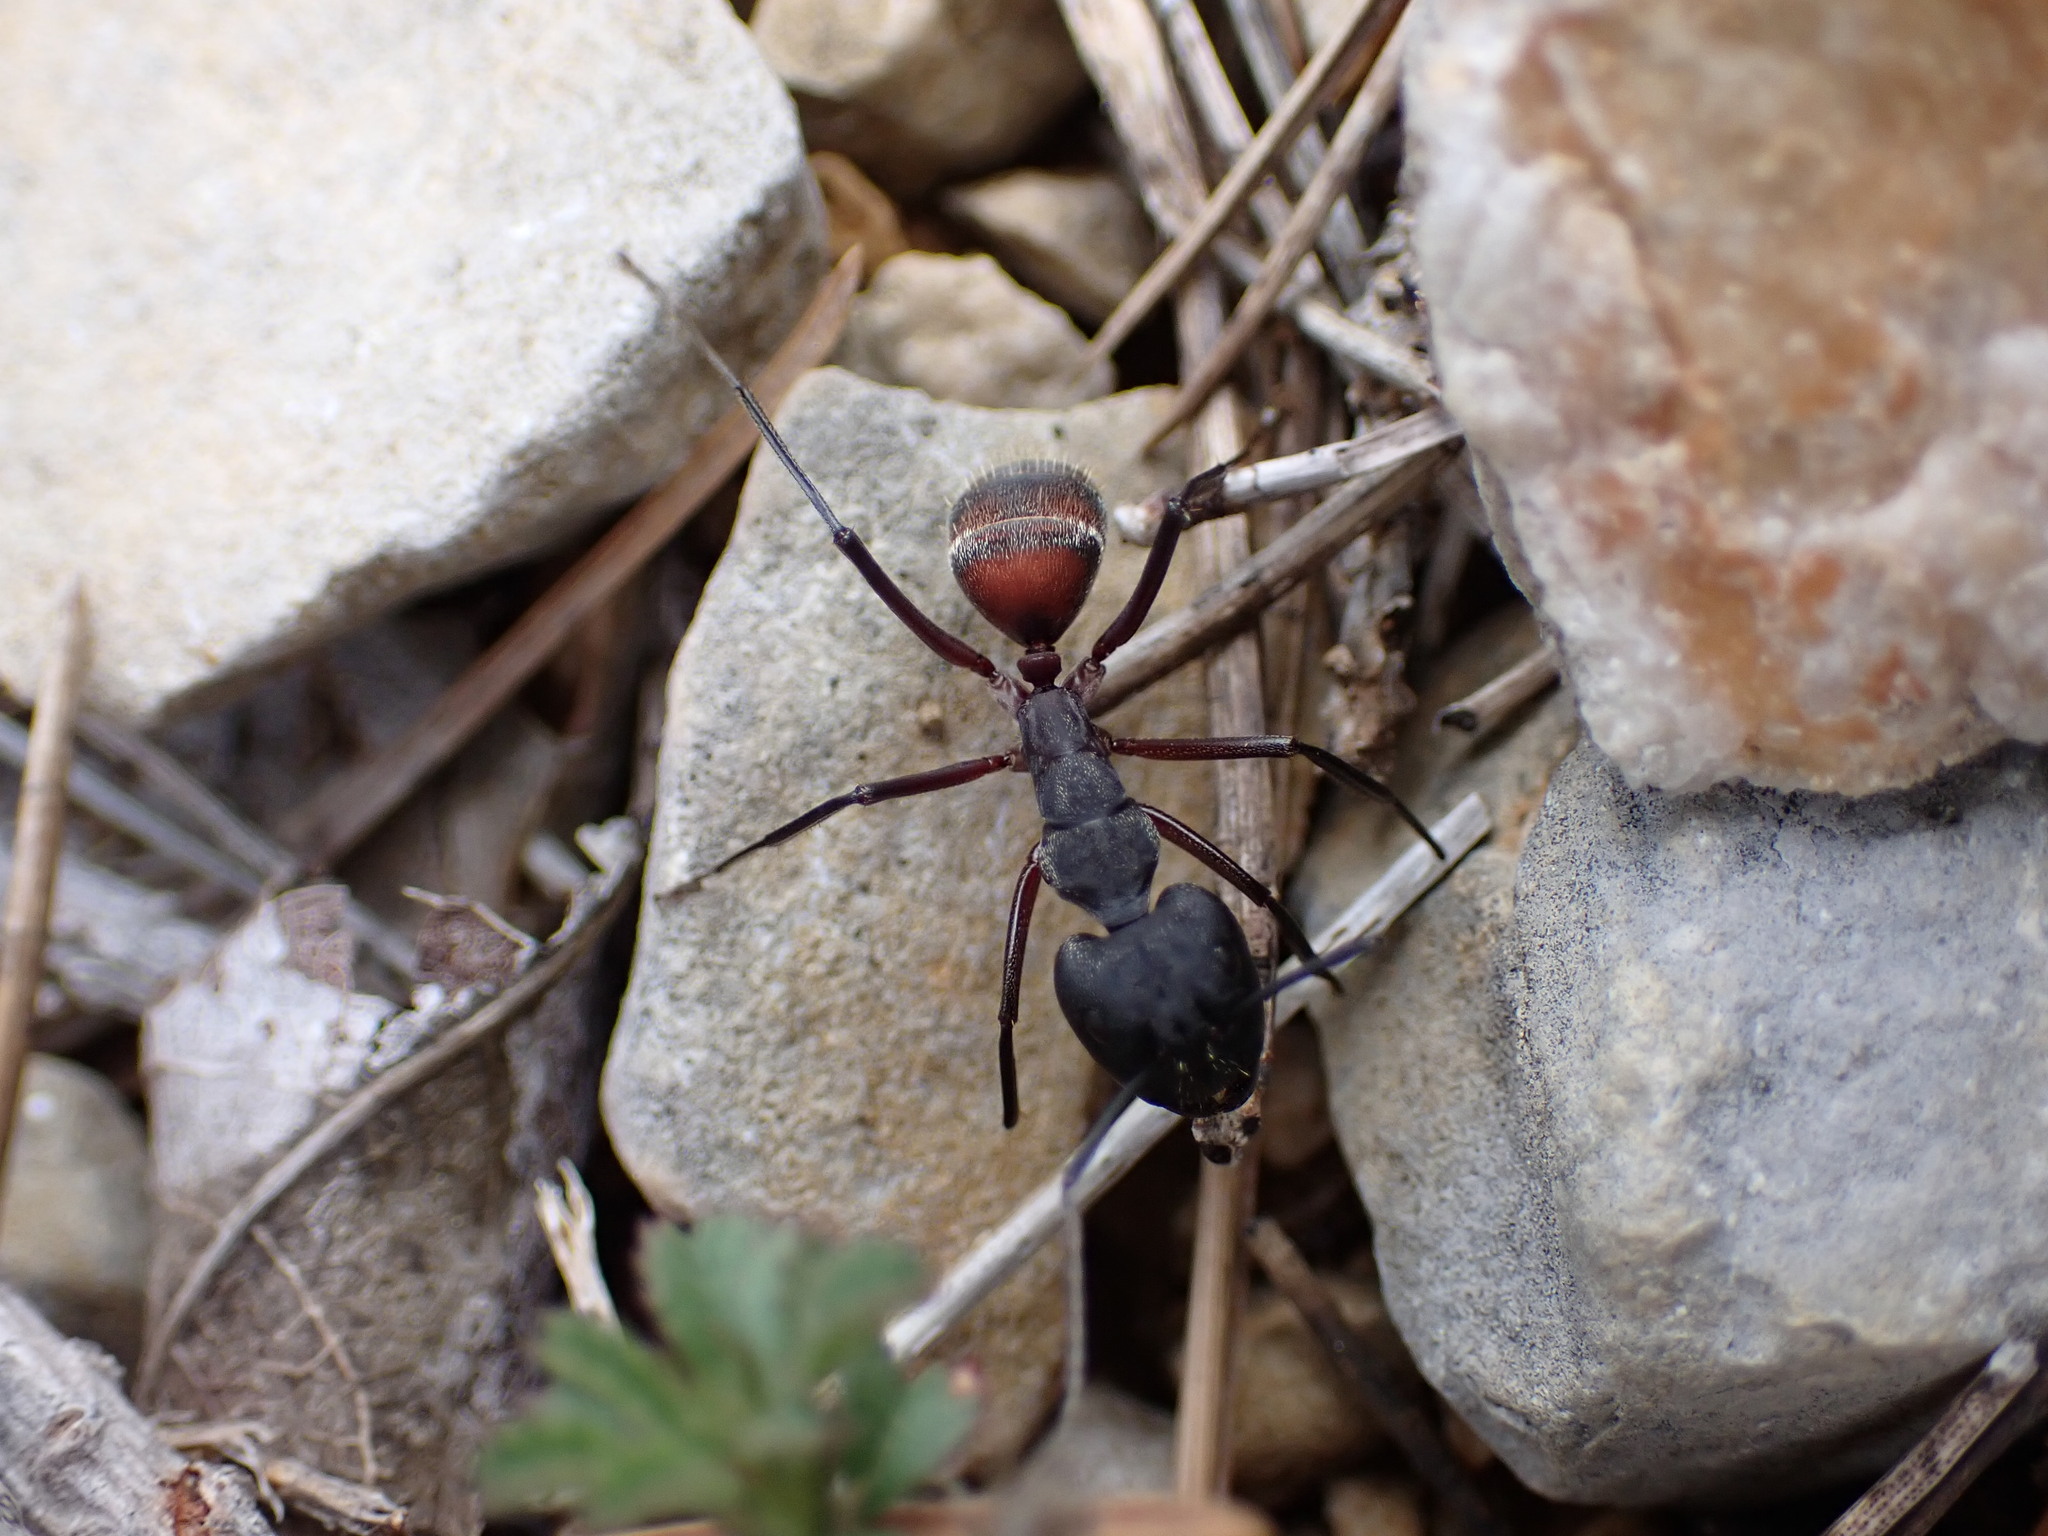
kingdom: Animalia
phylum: Arthropoda
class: Insecta
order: Hymenoptera
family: Formicidae
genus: Camponotus
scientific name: Camponotus cruentatus
